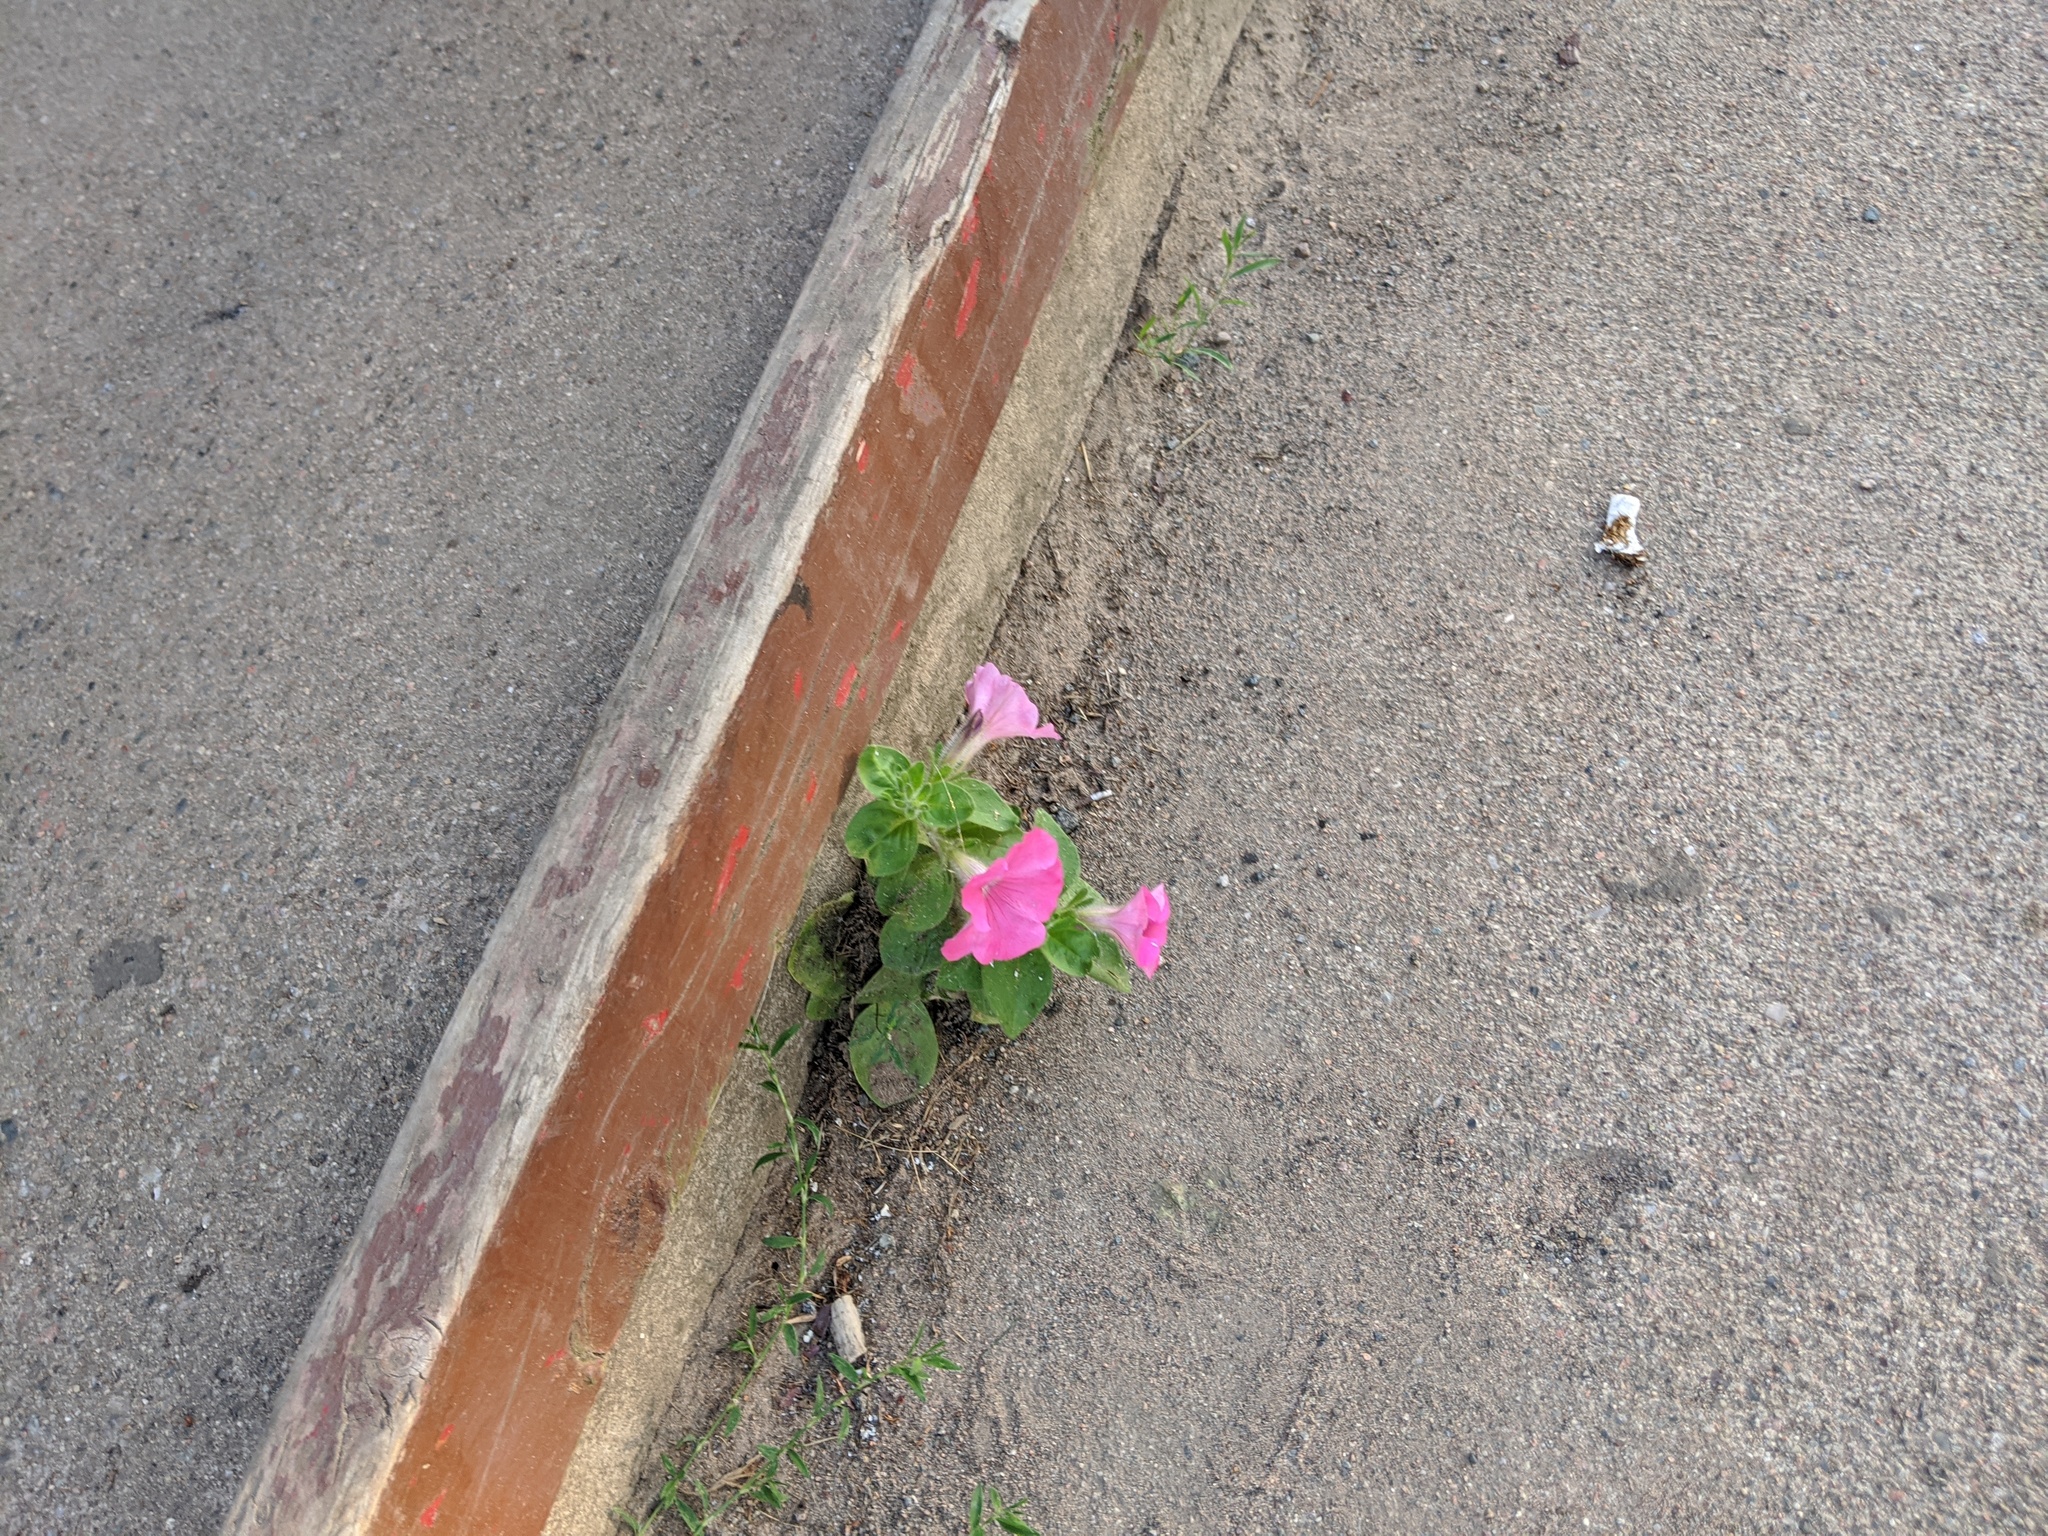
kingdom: Plantae
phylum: Tracheophyta
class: Magnoliopsida
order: Solanales
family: Solanaceae
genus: Petunia
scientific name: Petunia atkinsiana
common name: Petunia
